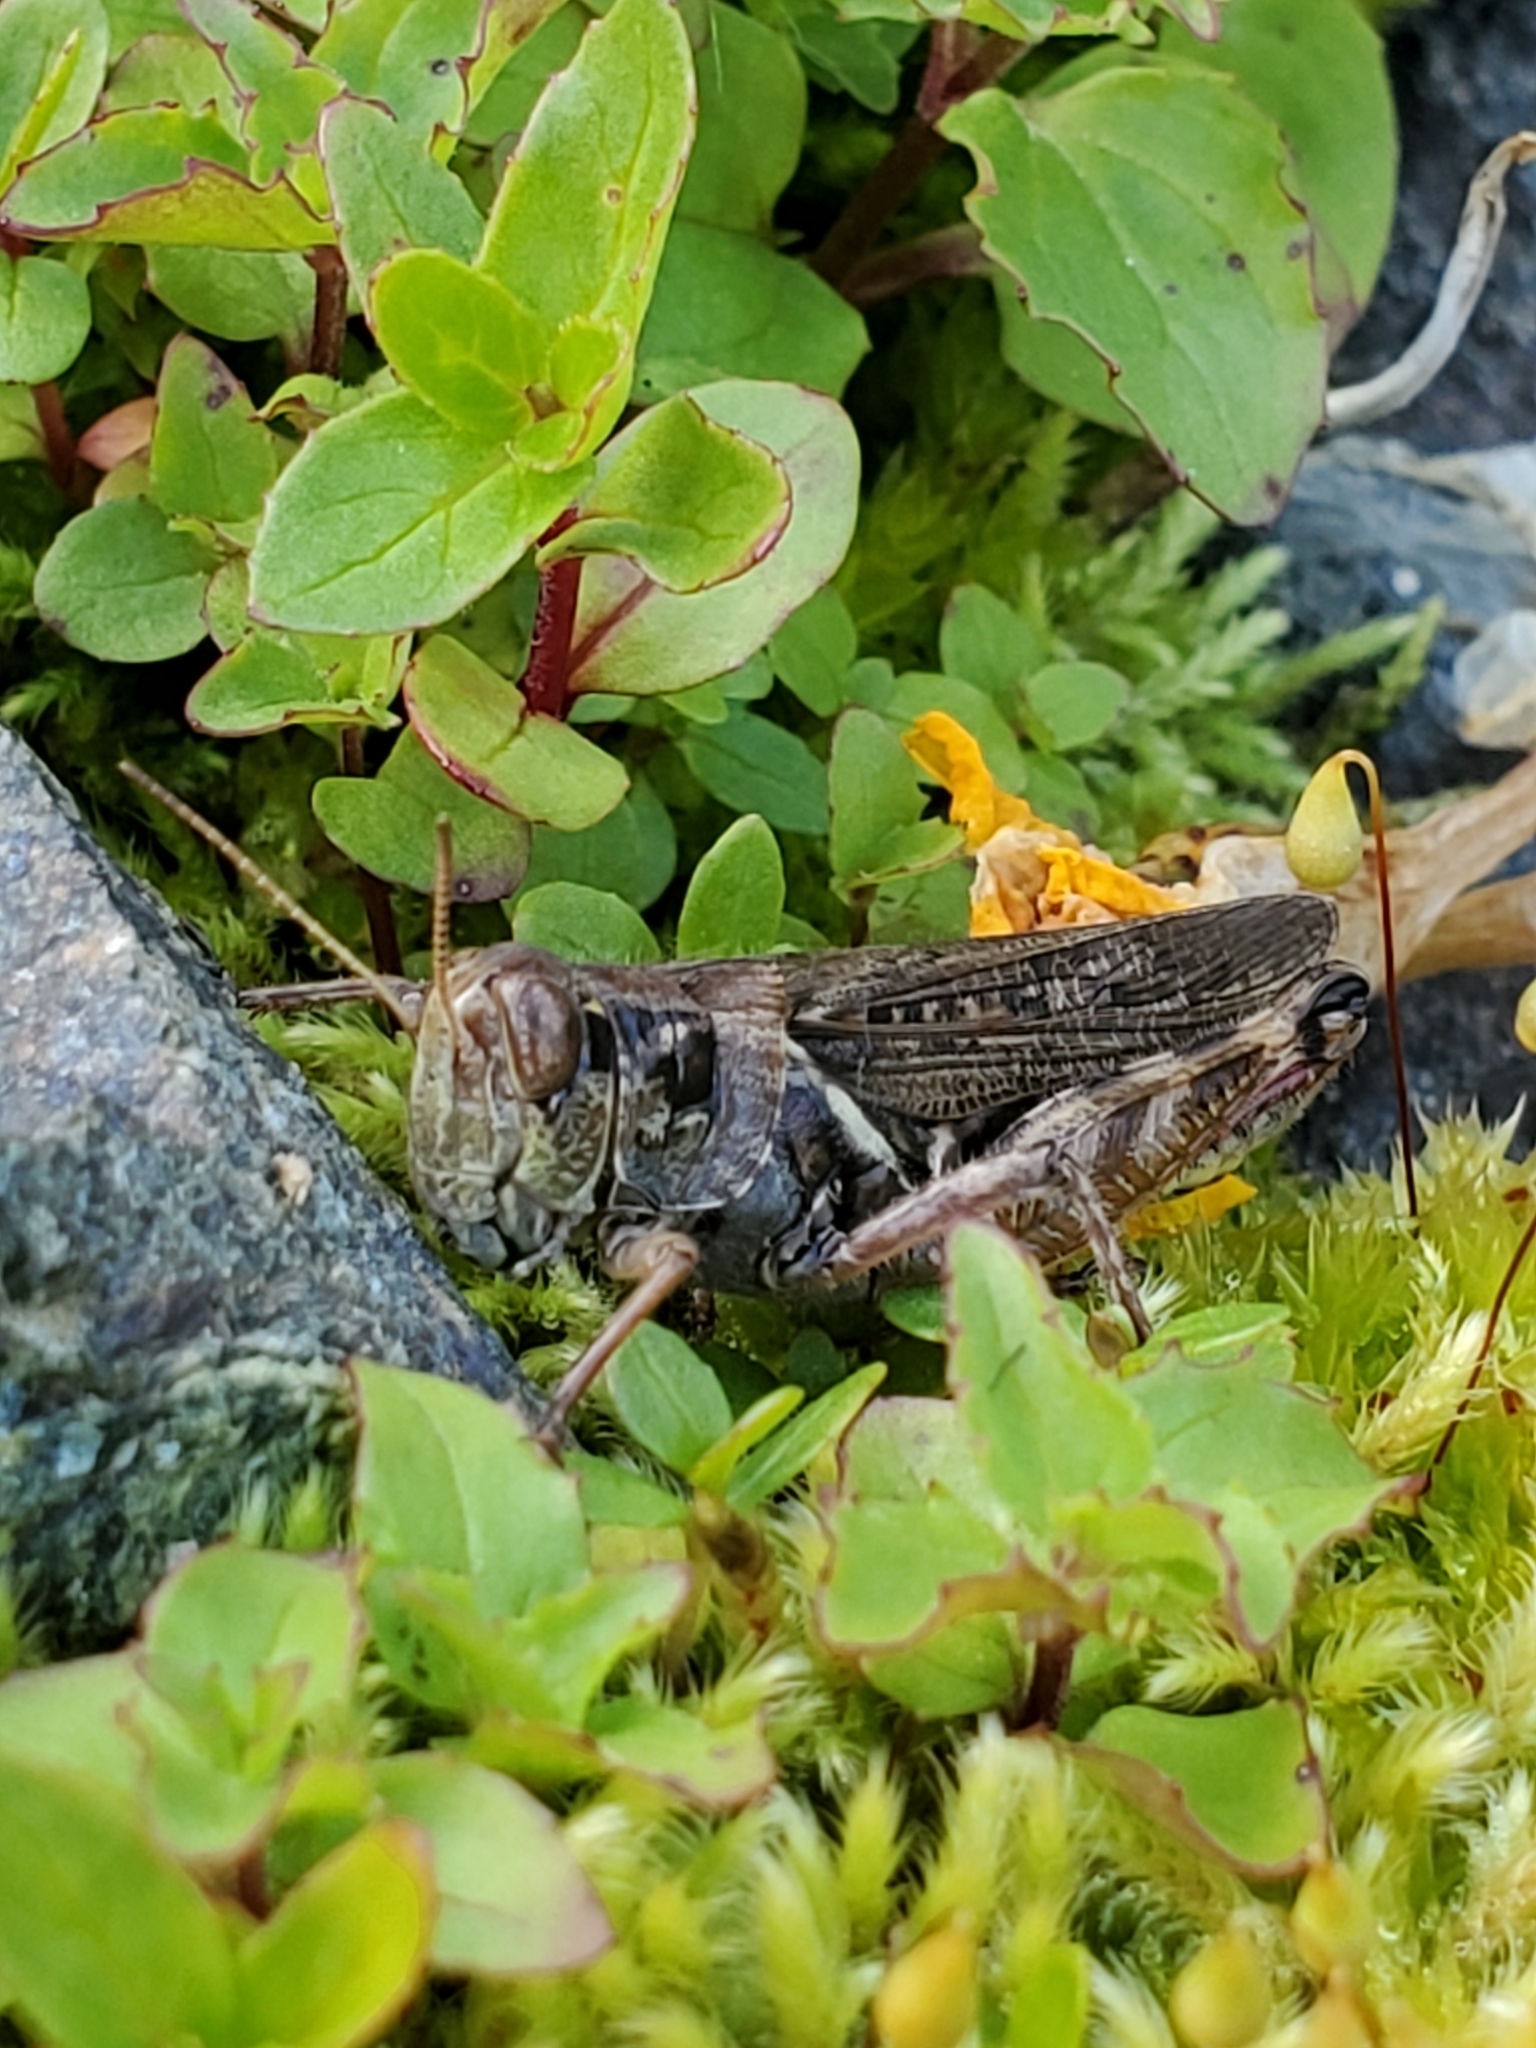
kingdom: Animalia
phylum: Arthropoda
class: Insecta
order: Orthoptera
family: Acrididae
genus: Melanoplus
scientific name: Melanoplus sanguinipes
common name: Migratory grasshopper
